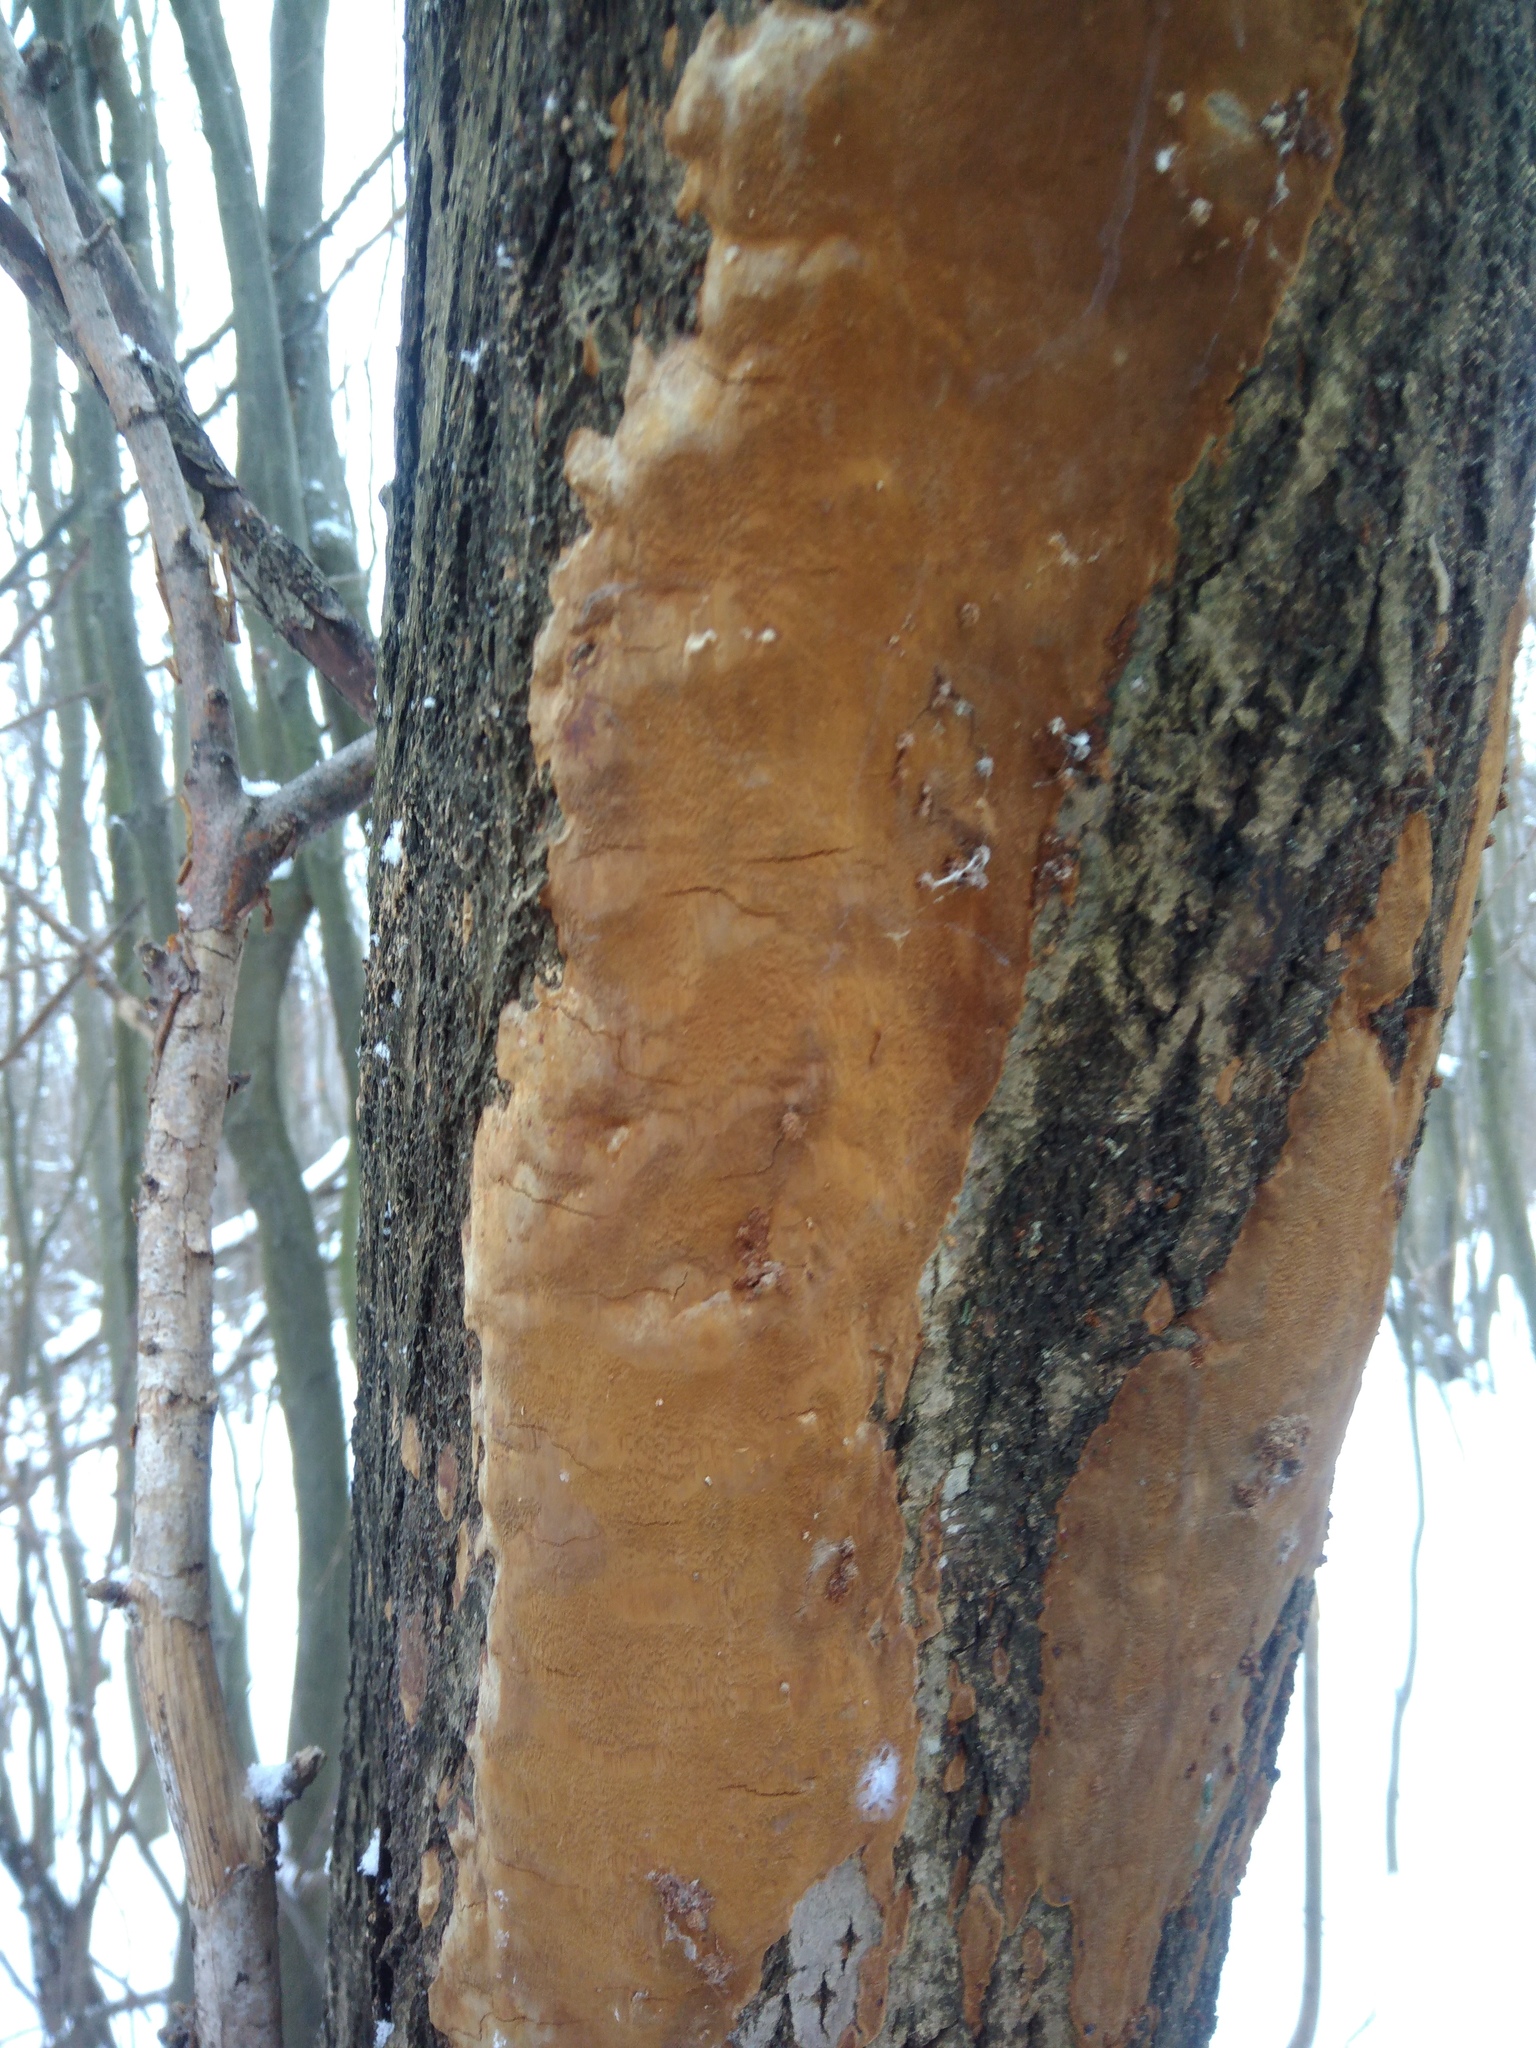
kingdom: Fungi
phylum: Basidiomycota
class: Agaricomycetes
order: Hymenochaetales
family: Hymenochaetaceae
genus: Fomitiporia
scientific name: Fomitiporia punctata
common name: Elbowpatch crust
